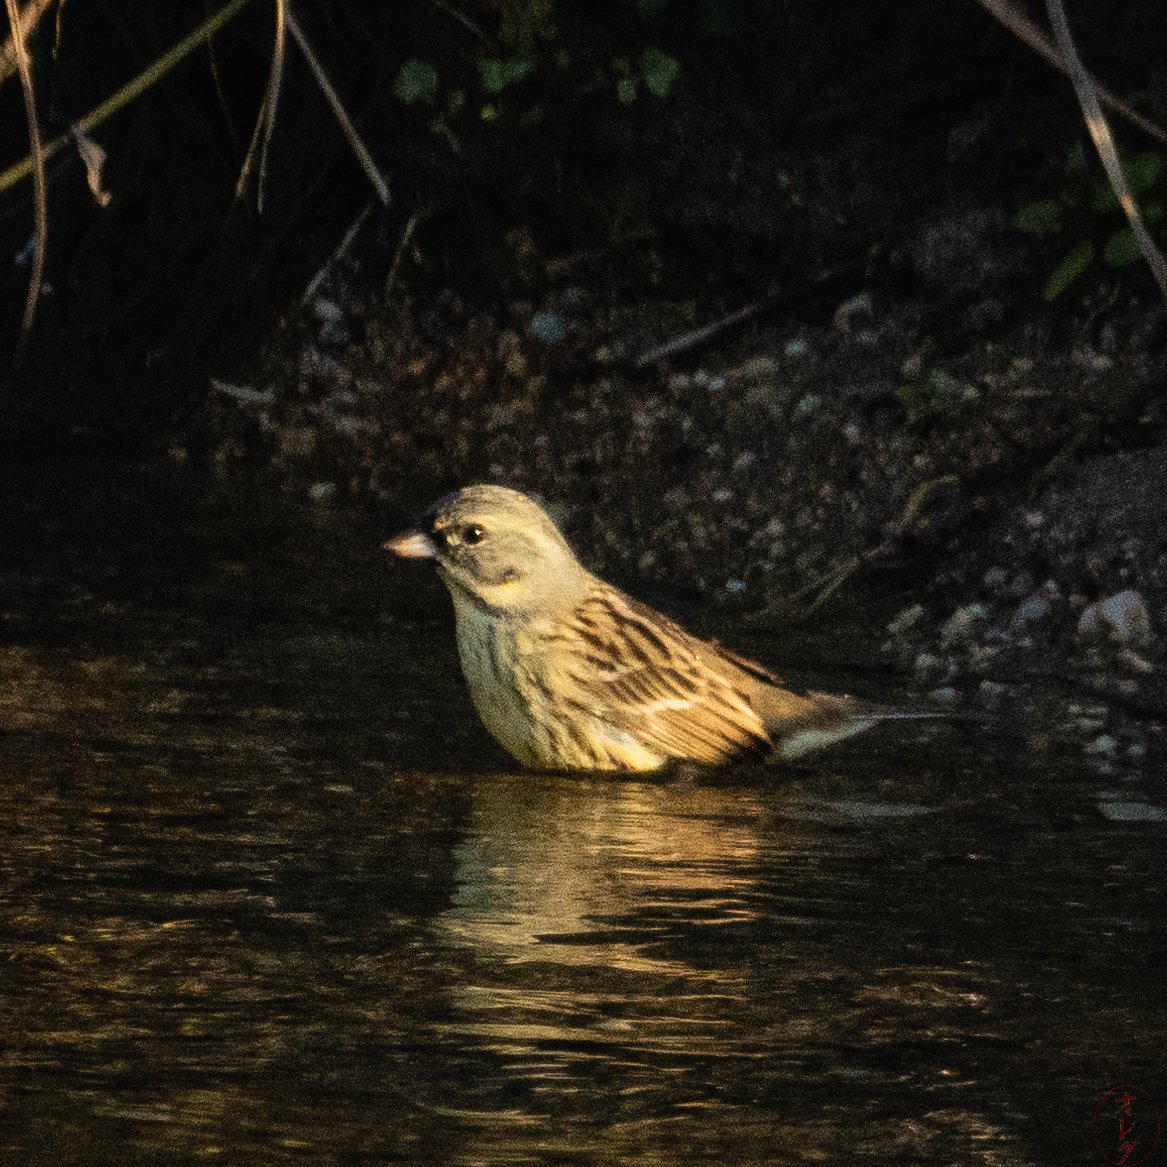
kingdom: Animalia
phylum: Chordata
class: Aves
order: Passeriformes
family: Emberizidae
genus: Emberiza
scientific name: Emberiza personata
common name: Masked bunting
